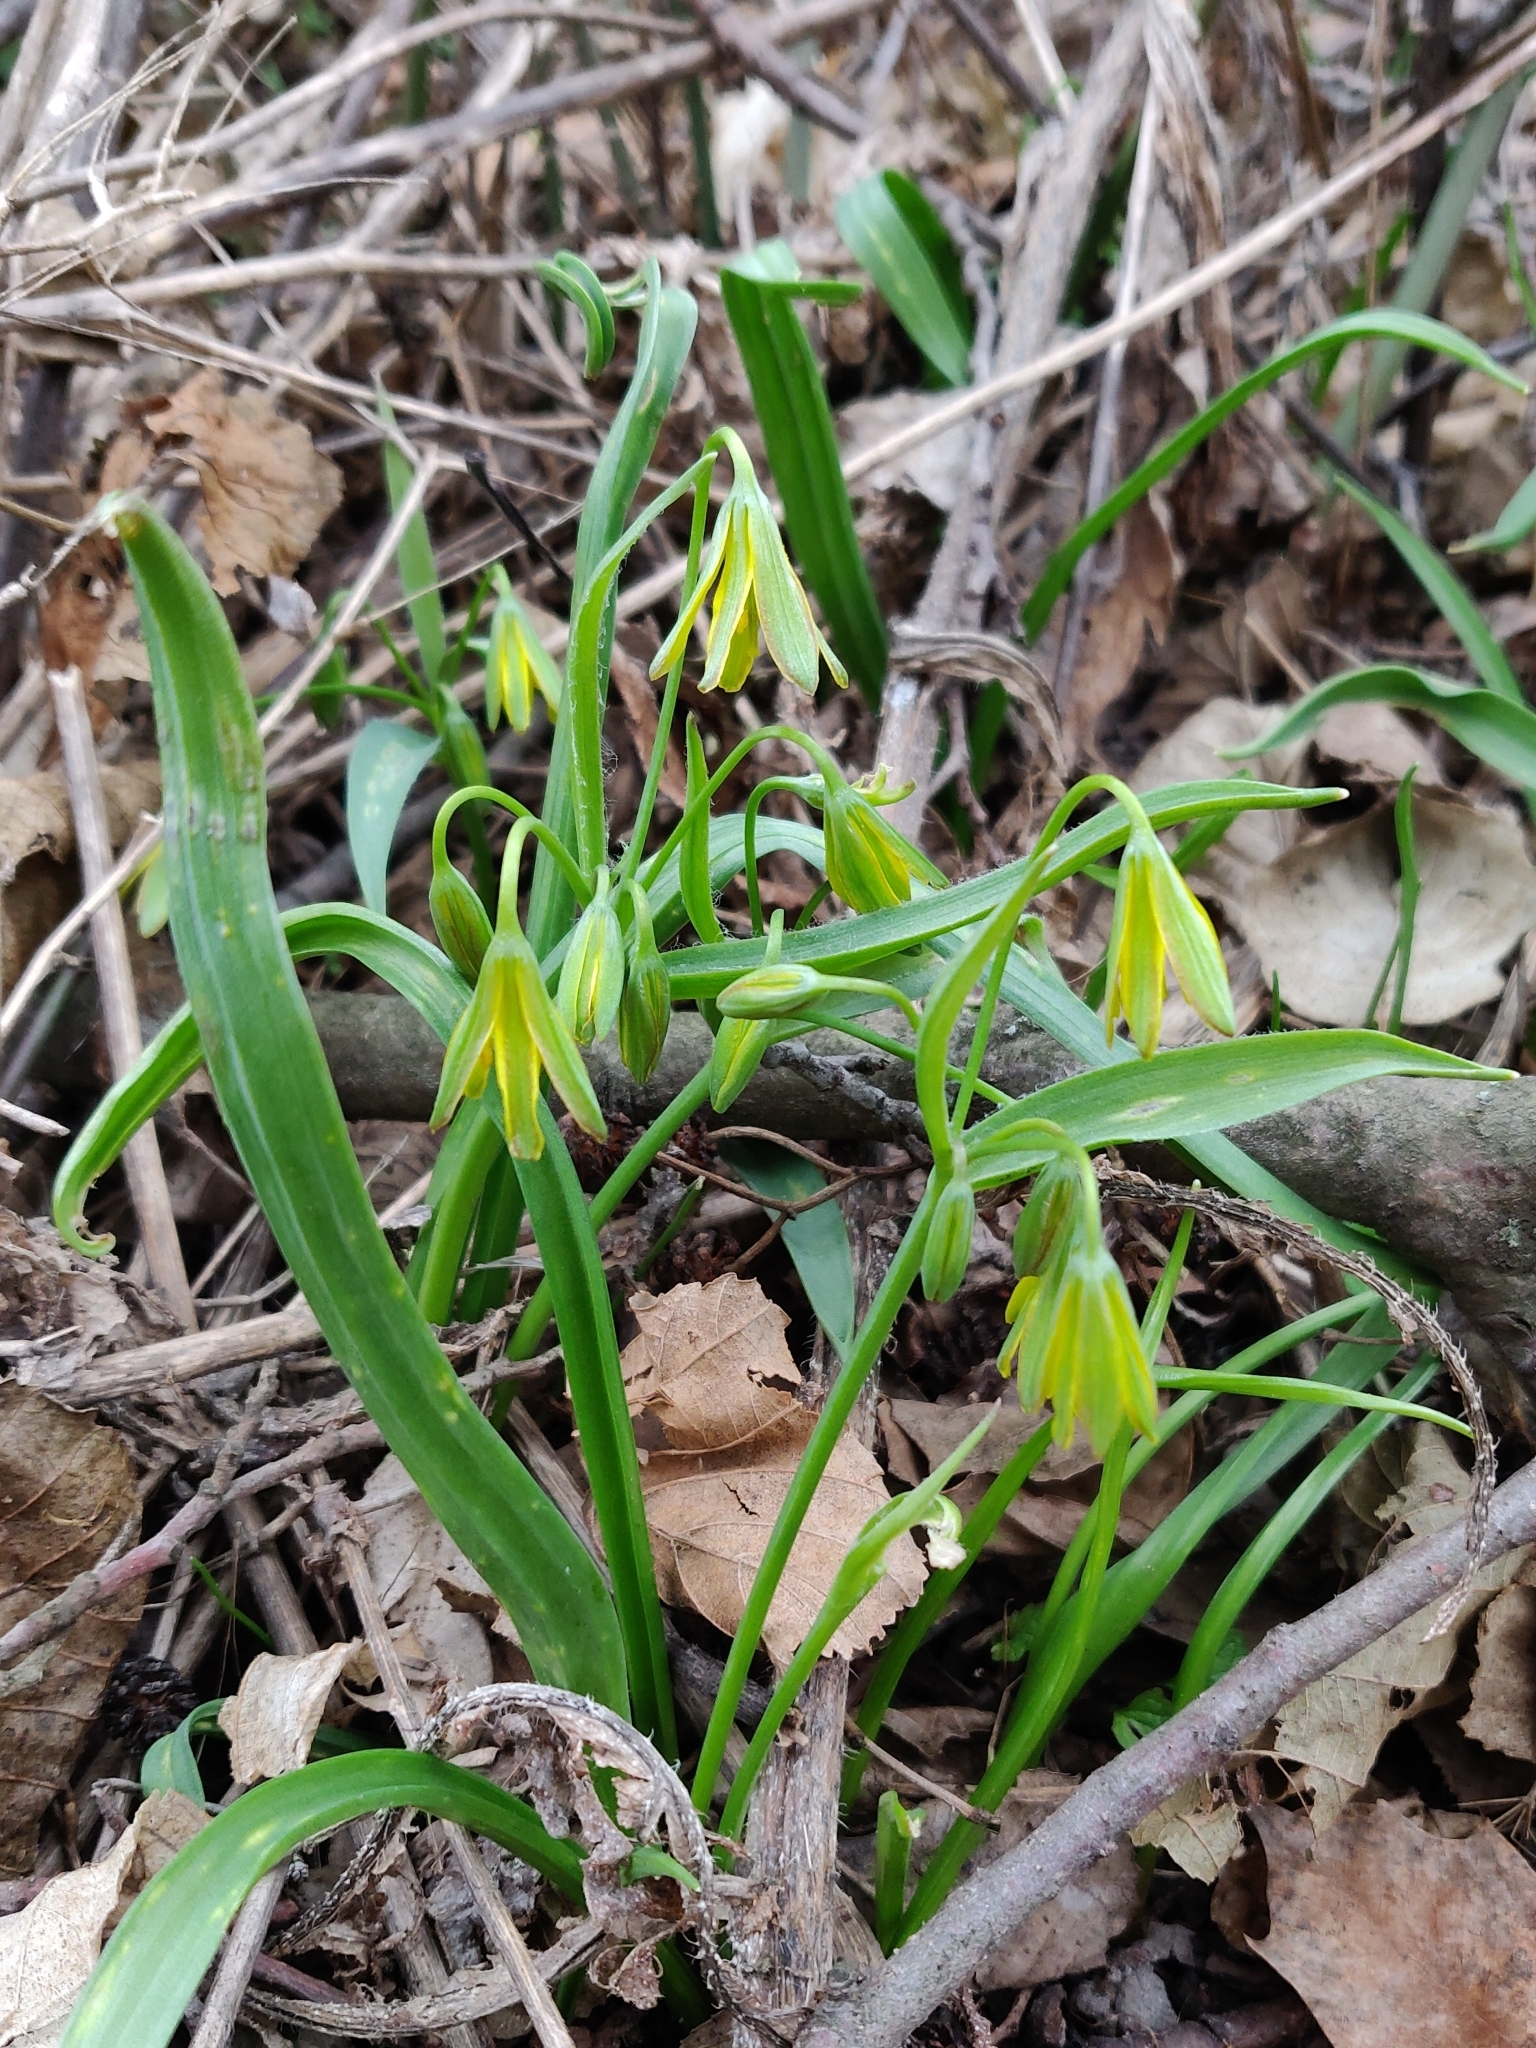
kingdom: Plantae
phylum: Tracheophyta
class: Liliopsida
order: Liliales
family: Liliaceae
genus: Gagea
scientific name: Gagea lutea
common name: Yellow star-of-bethlehem
